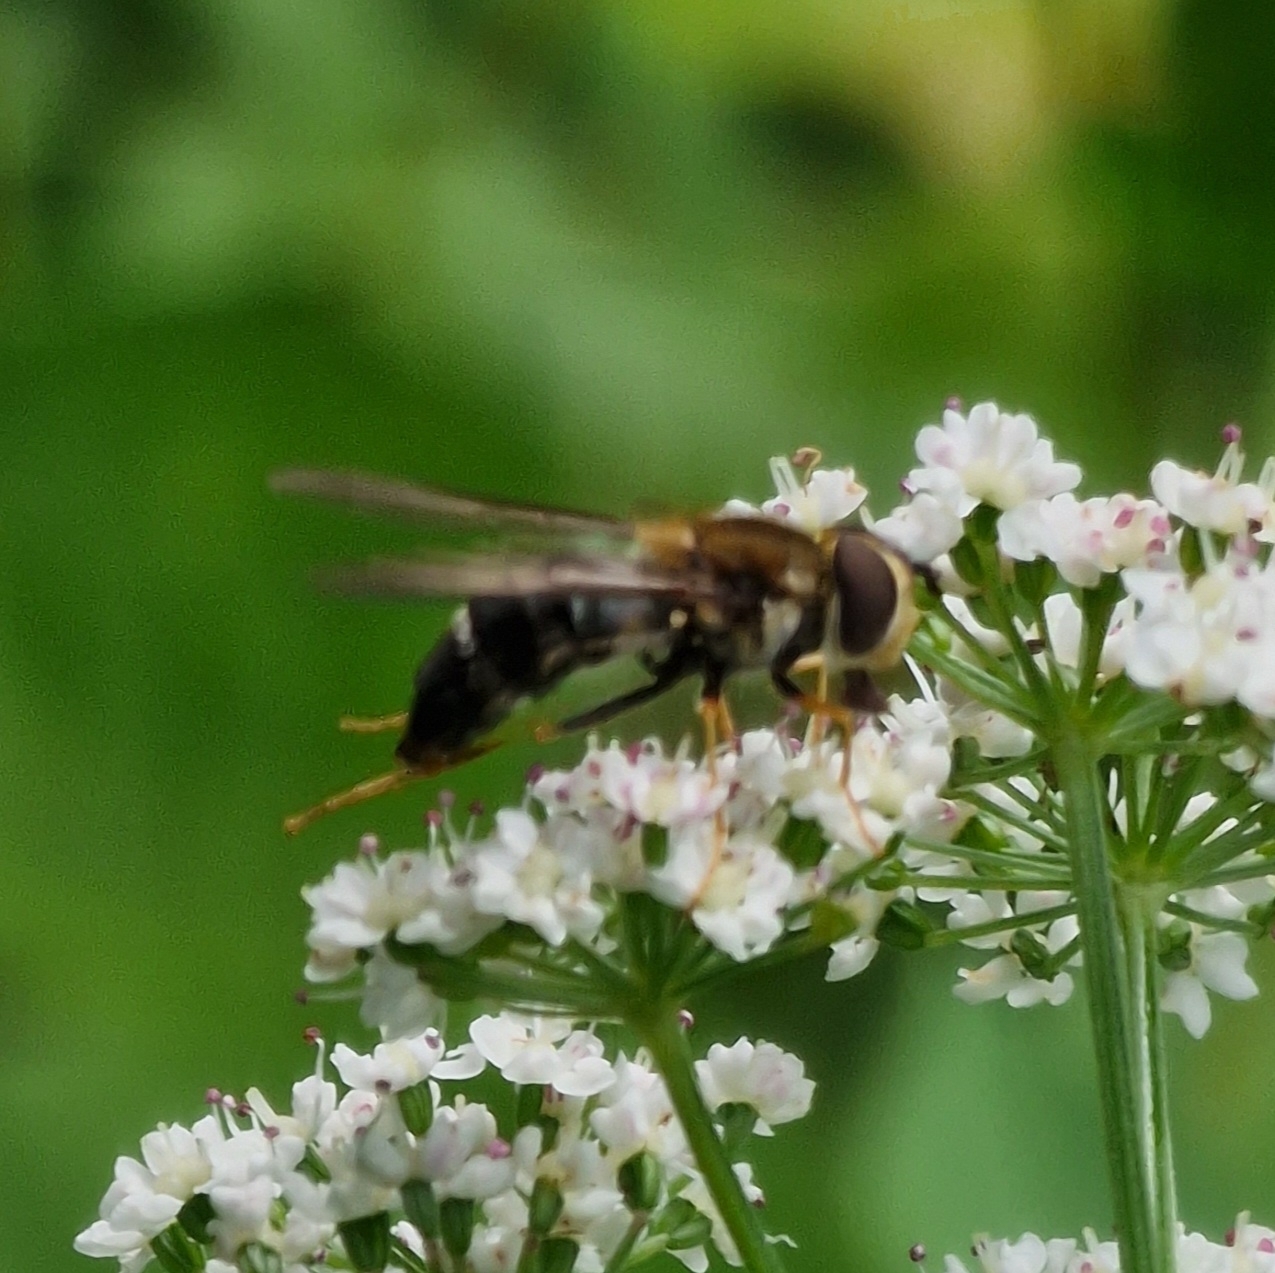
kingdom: Animalia
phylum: Arthropoda
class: Insecta
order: Diptera
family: Syrphidae
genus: Leucozona
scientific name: Leucozona glaucia
